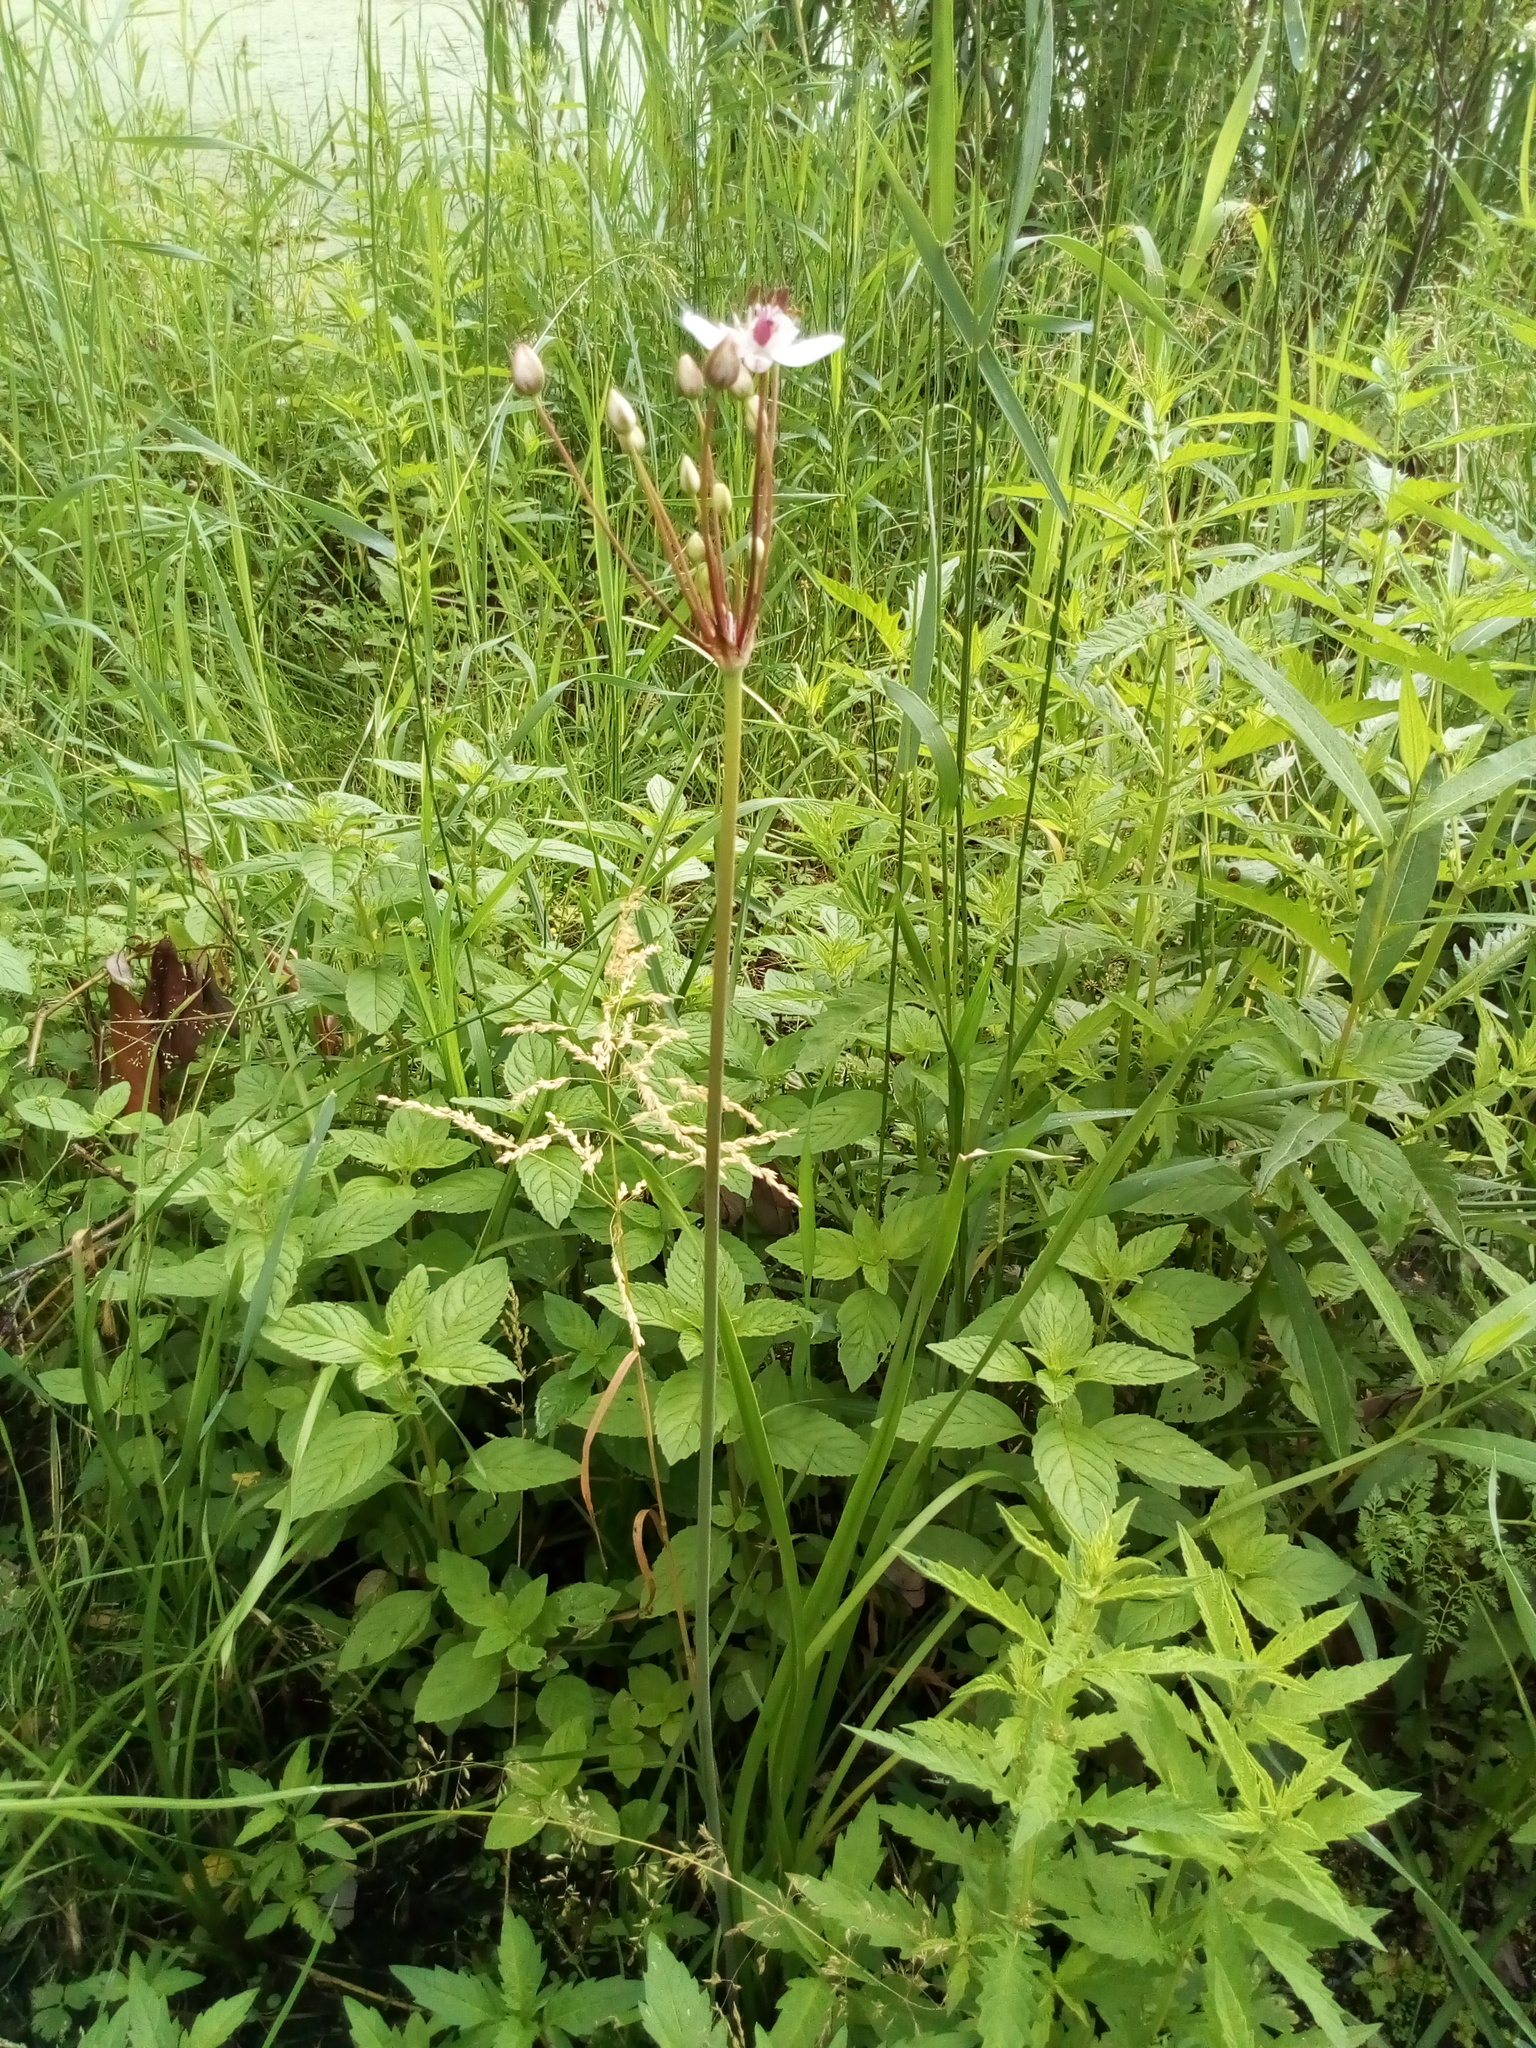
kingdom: Plantae
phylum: Tracheophyta
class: Liliopsida
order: Alismatales
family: Butomaceae
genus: Butomus
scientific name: Butomus umbellatus
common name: Flowering-rush
